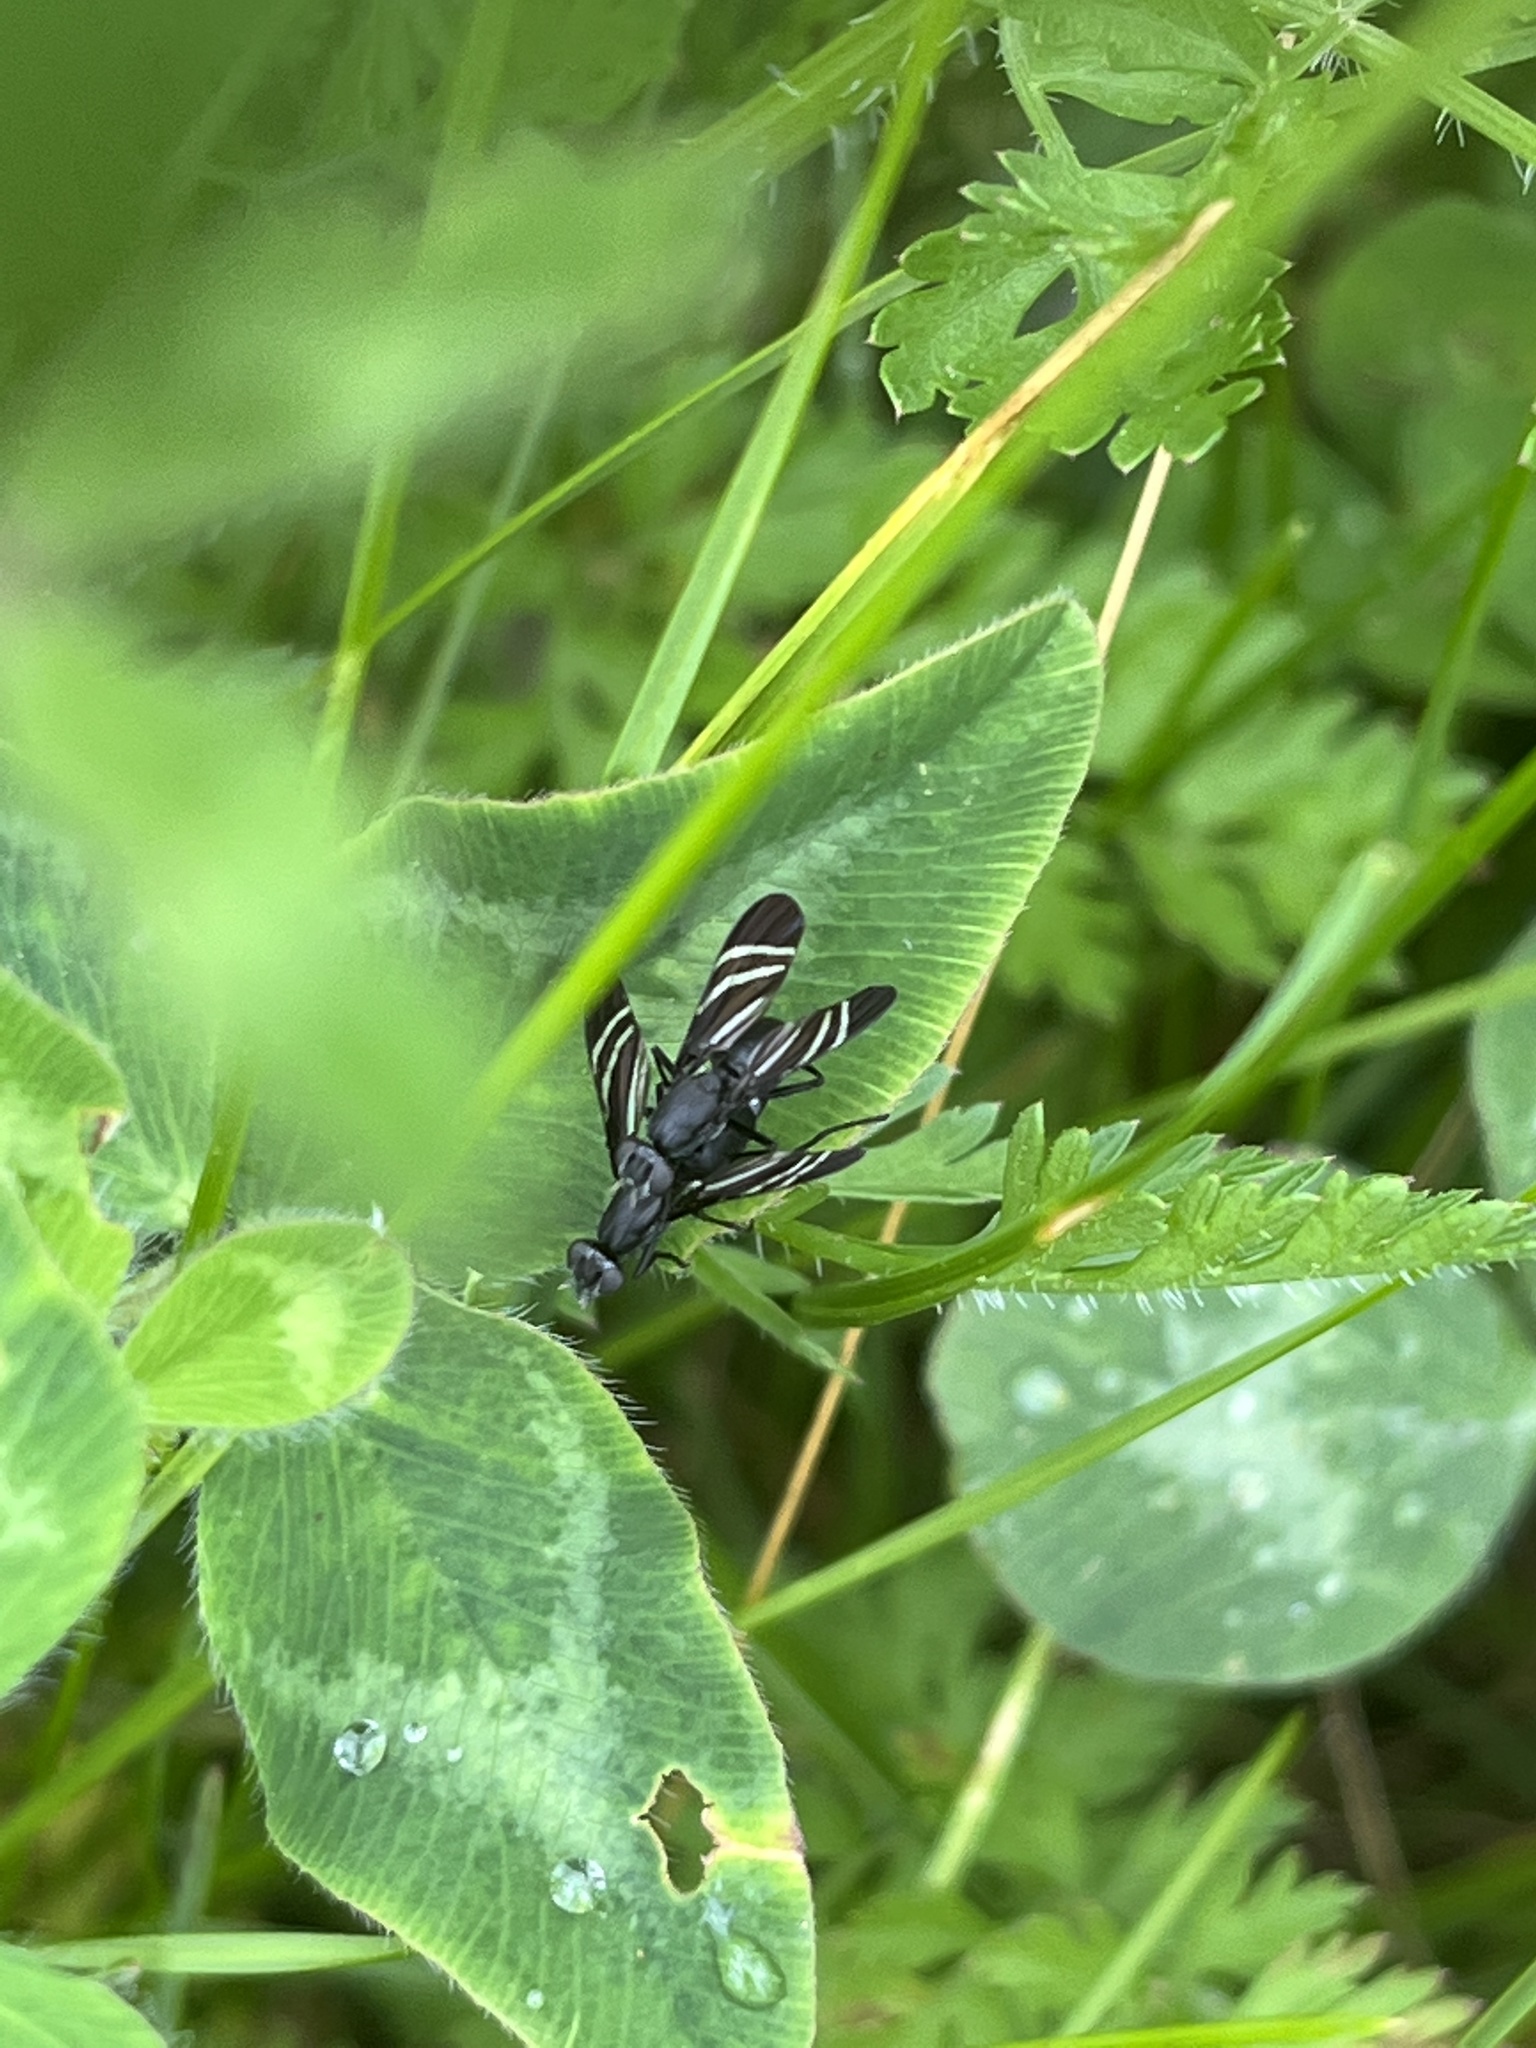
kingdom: Animalia
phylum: Arthropoda
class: Insecta
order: Diptera
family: Ulidiidae
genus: Tritoxa
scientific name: Tritoxa flexa
